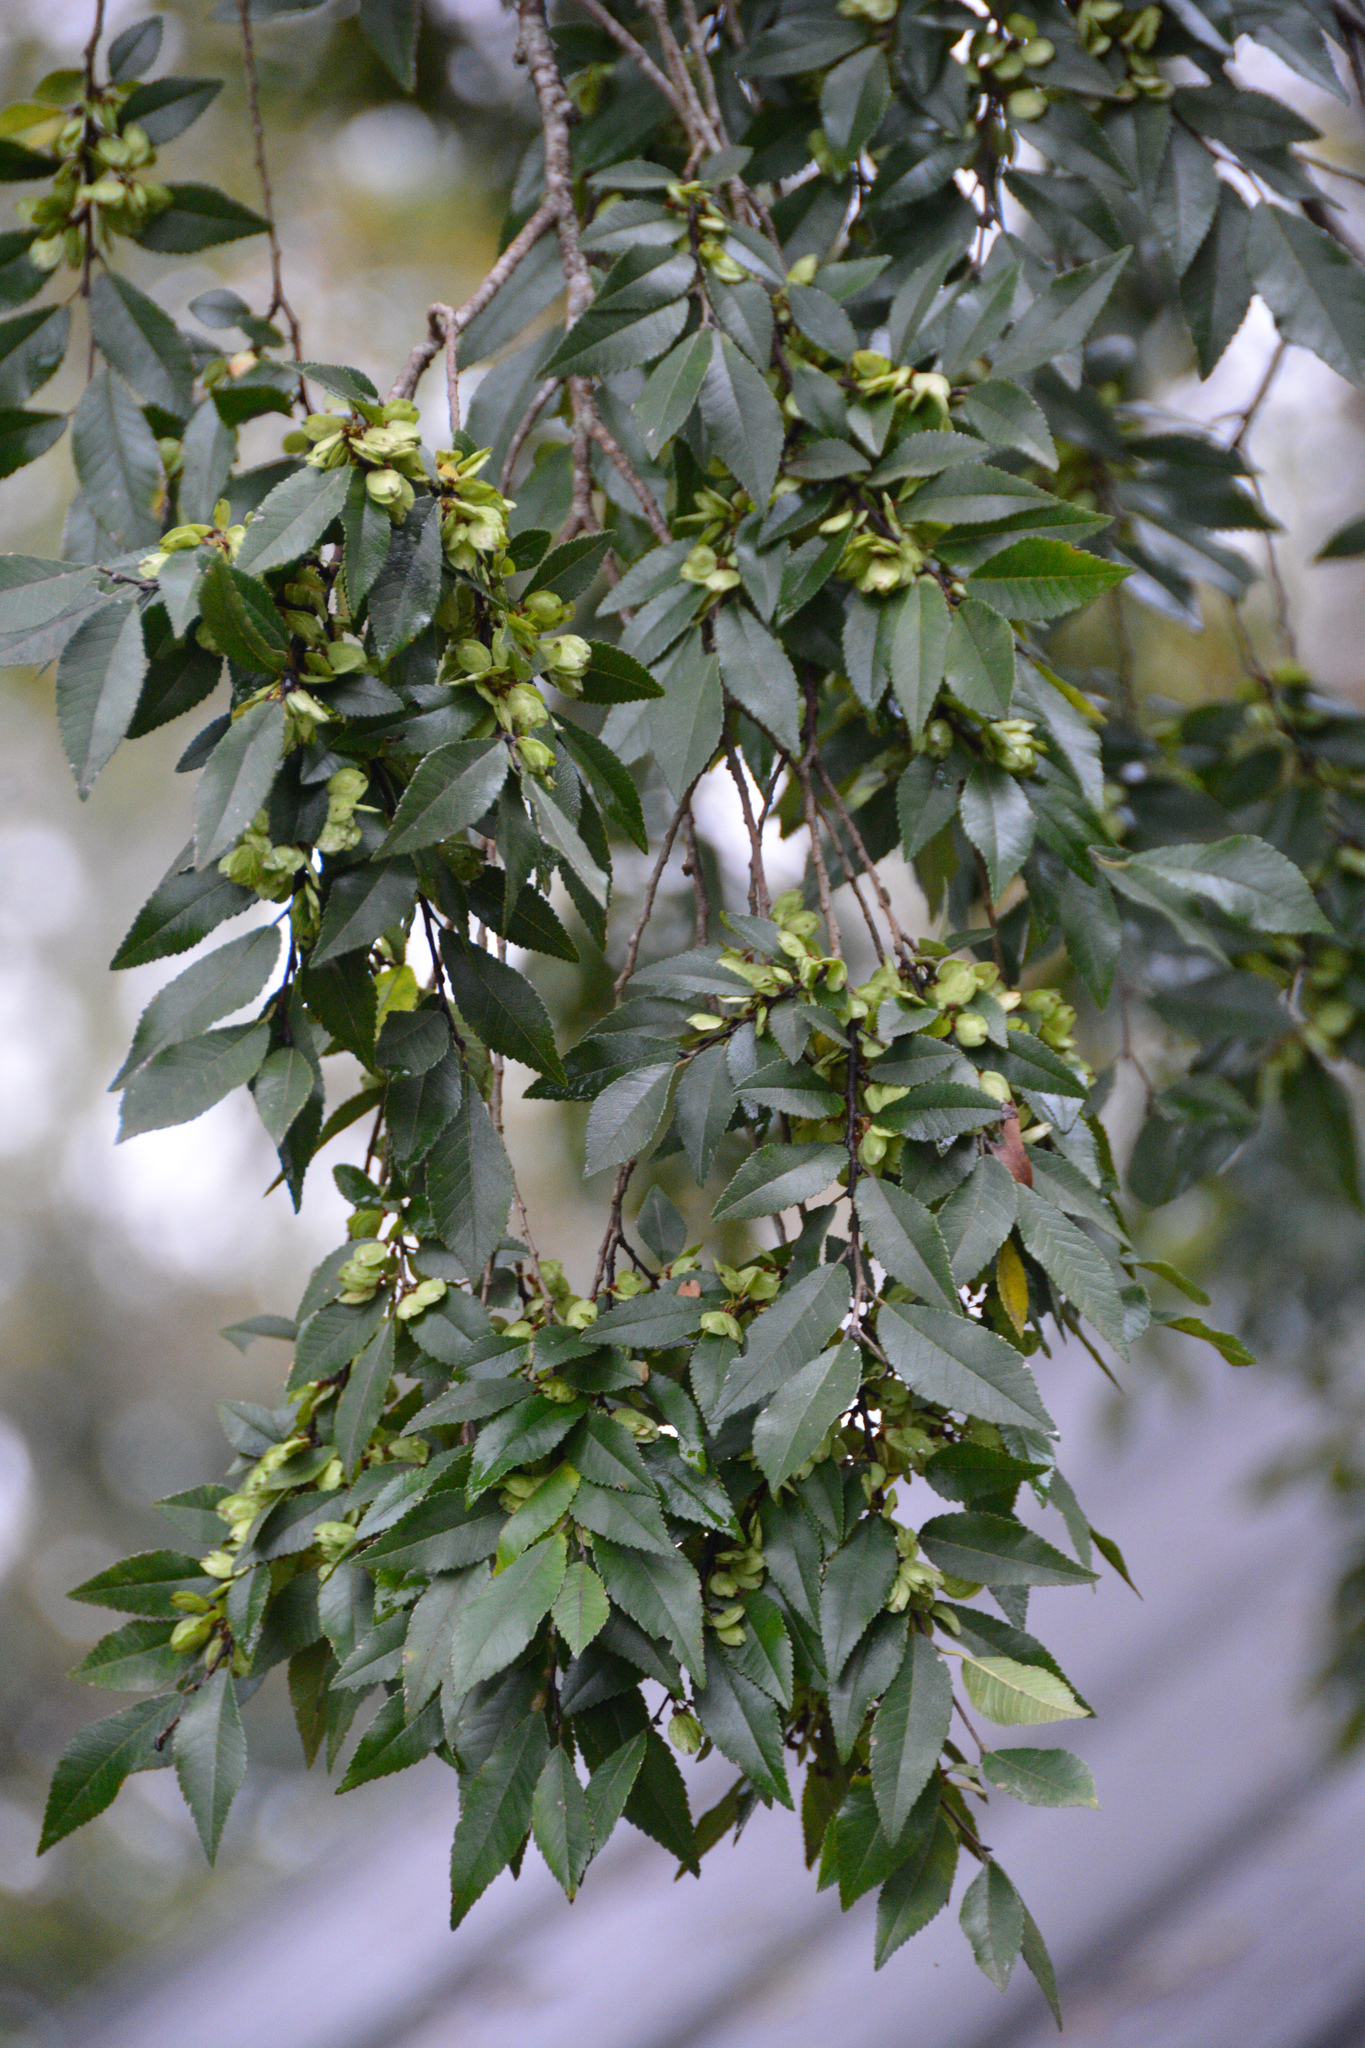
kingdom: Plantae
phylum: Tracheophyta
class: Magnoliopsida
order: Rosales
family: Ulmaceae
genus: Ulmus
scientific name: Ulmus parvifolia
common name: Chinese elm
